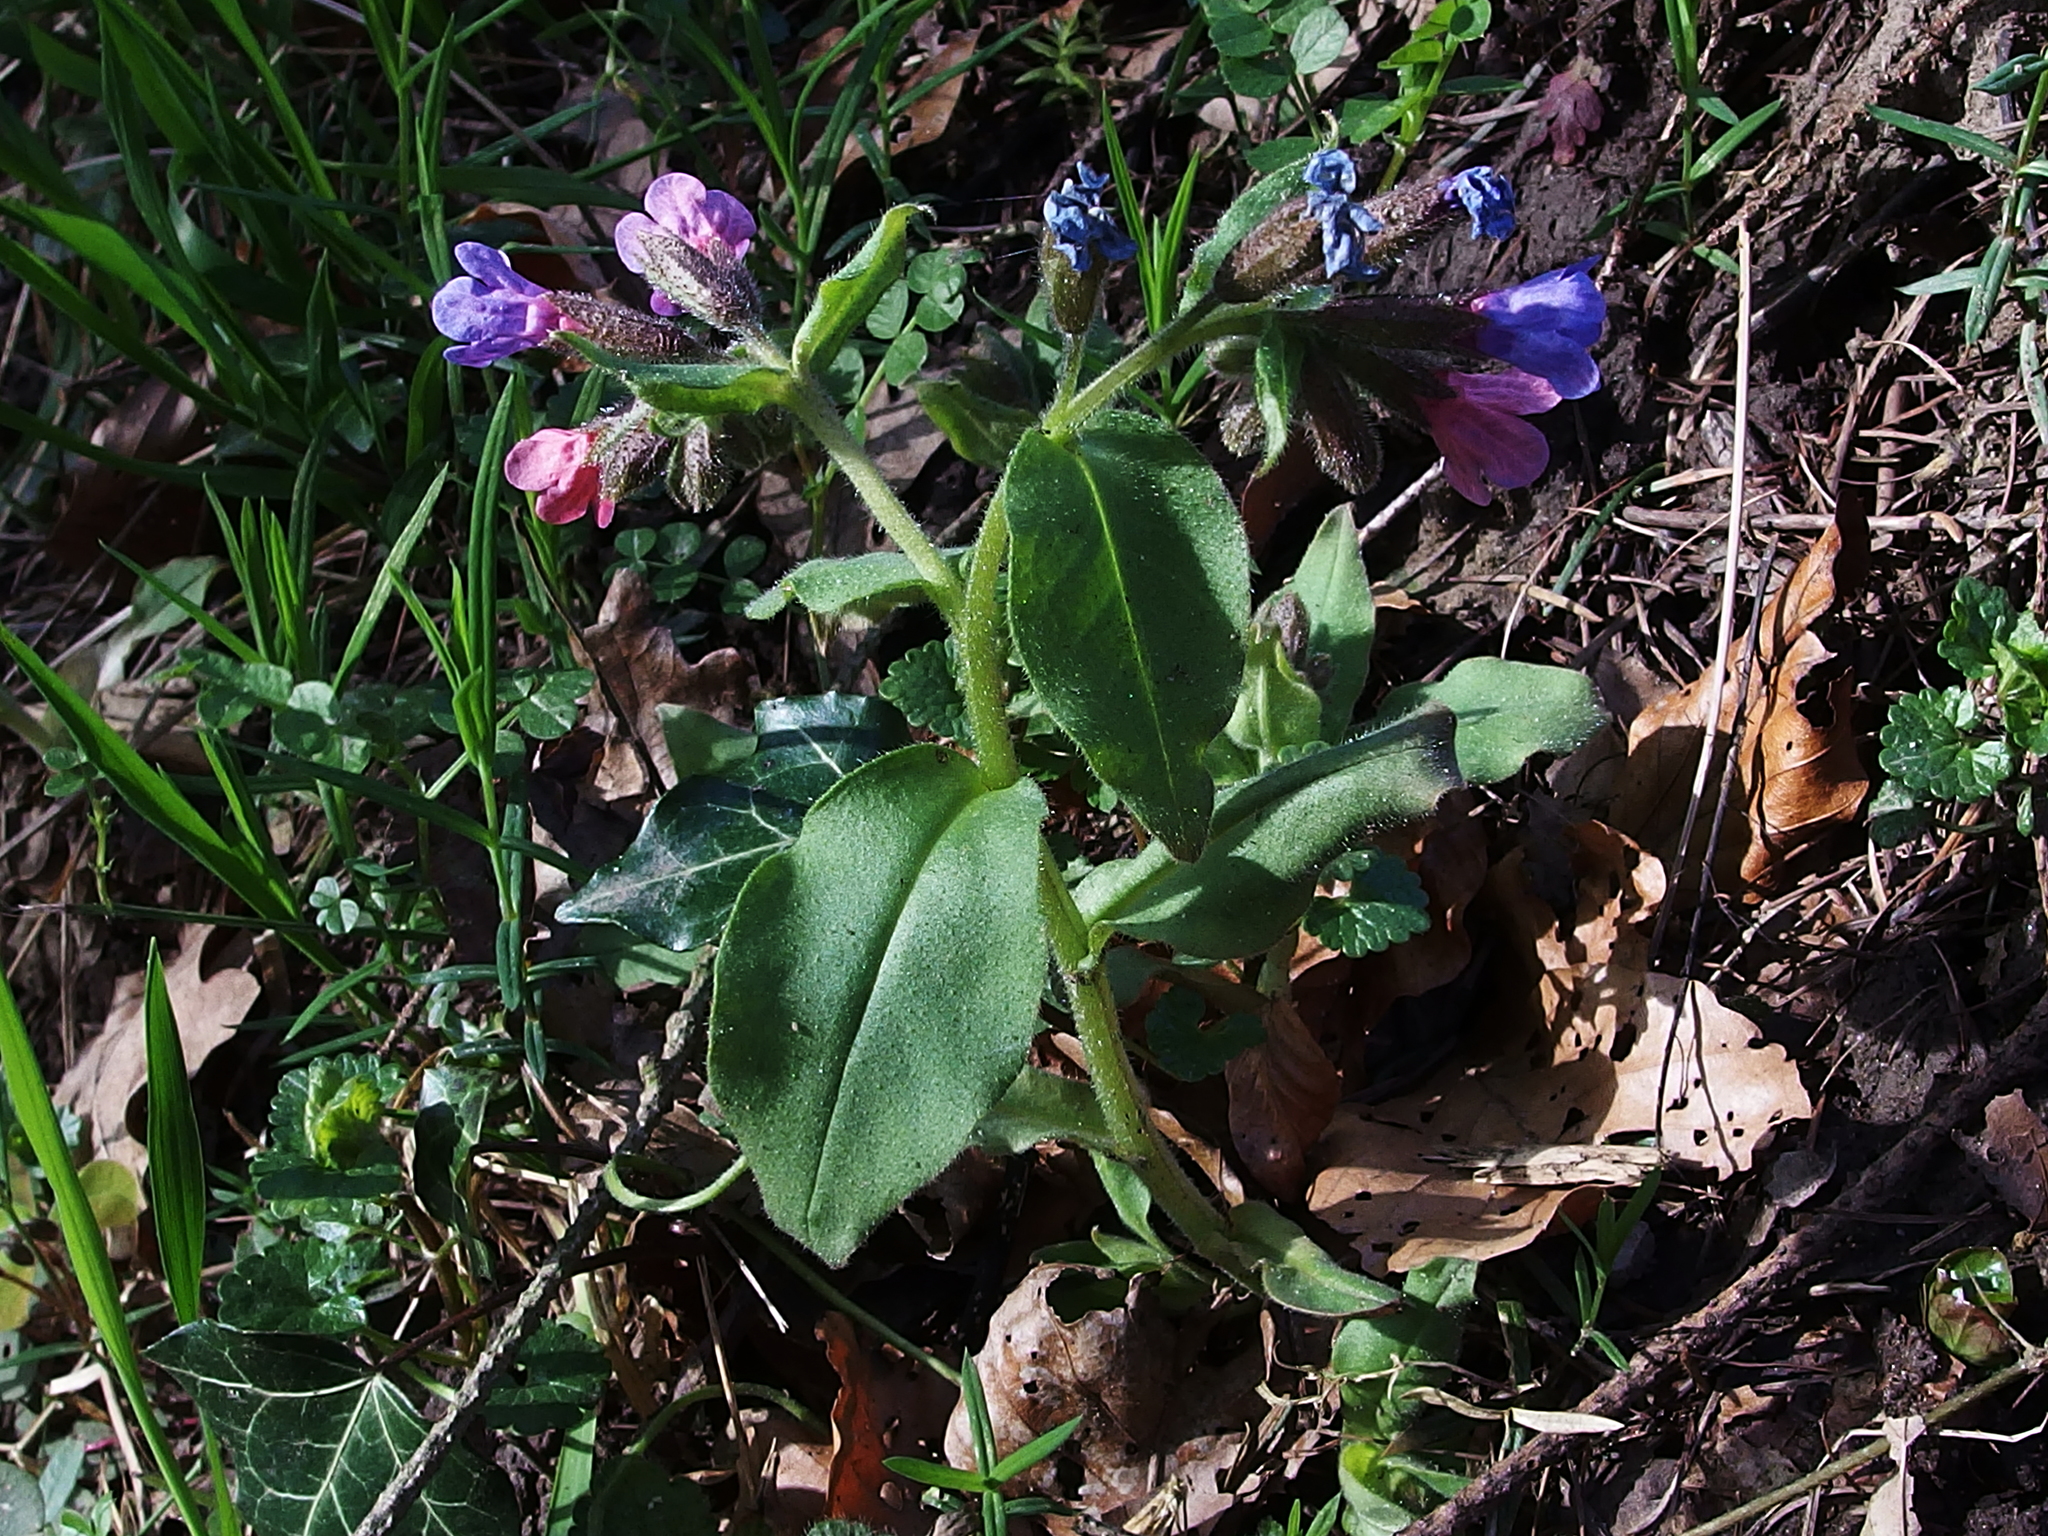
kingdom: Plantae
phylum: Tracheophyta
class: Magnoliopsida
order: Boraginales
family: Boraginaceae
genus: Pulmonaria
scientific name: Pulmonaria obscura
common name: Suffolk lungwort
